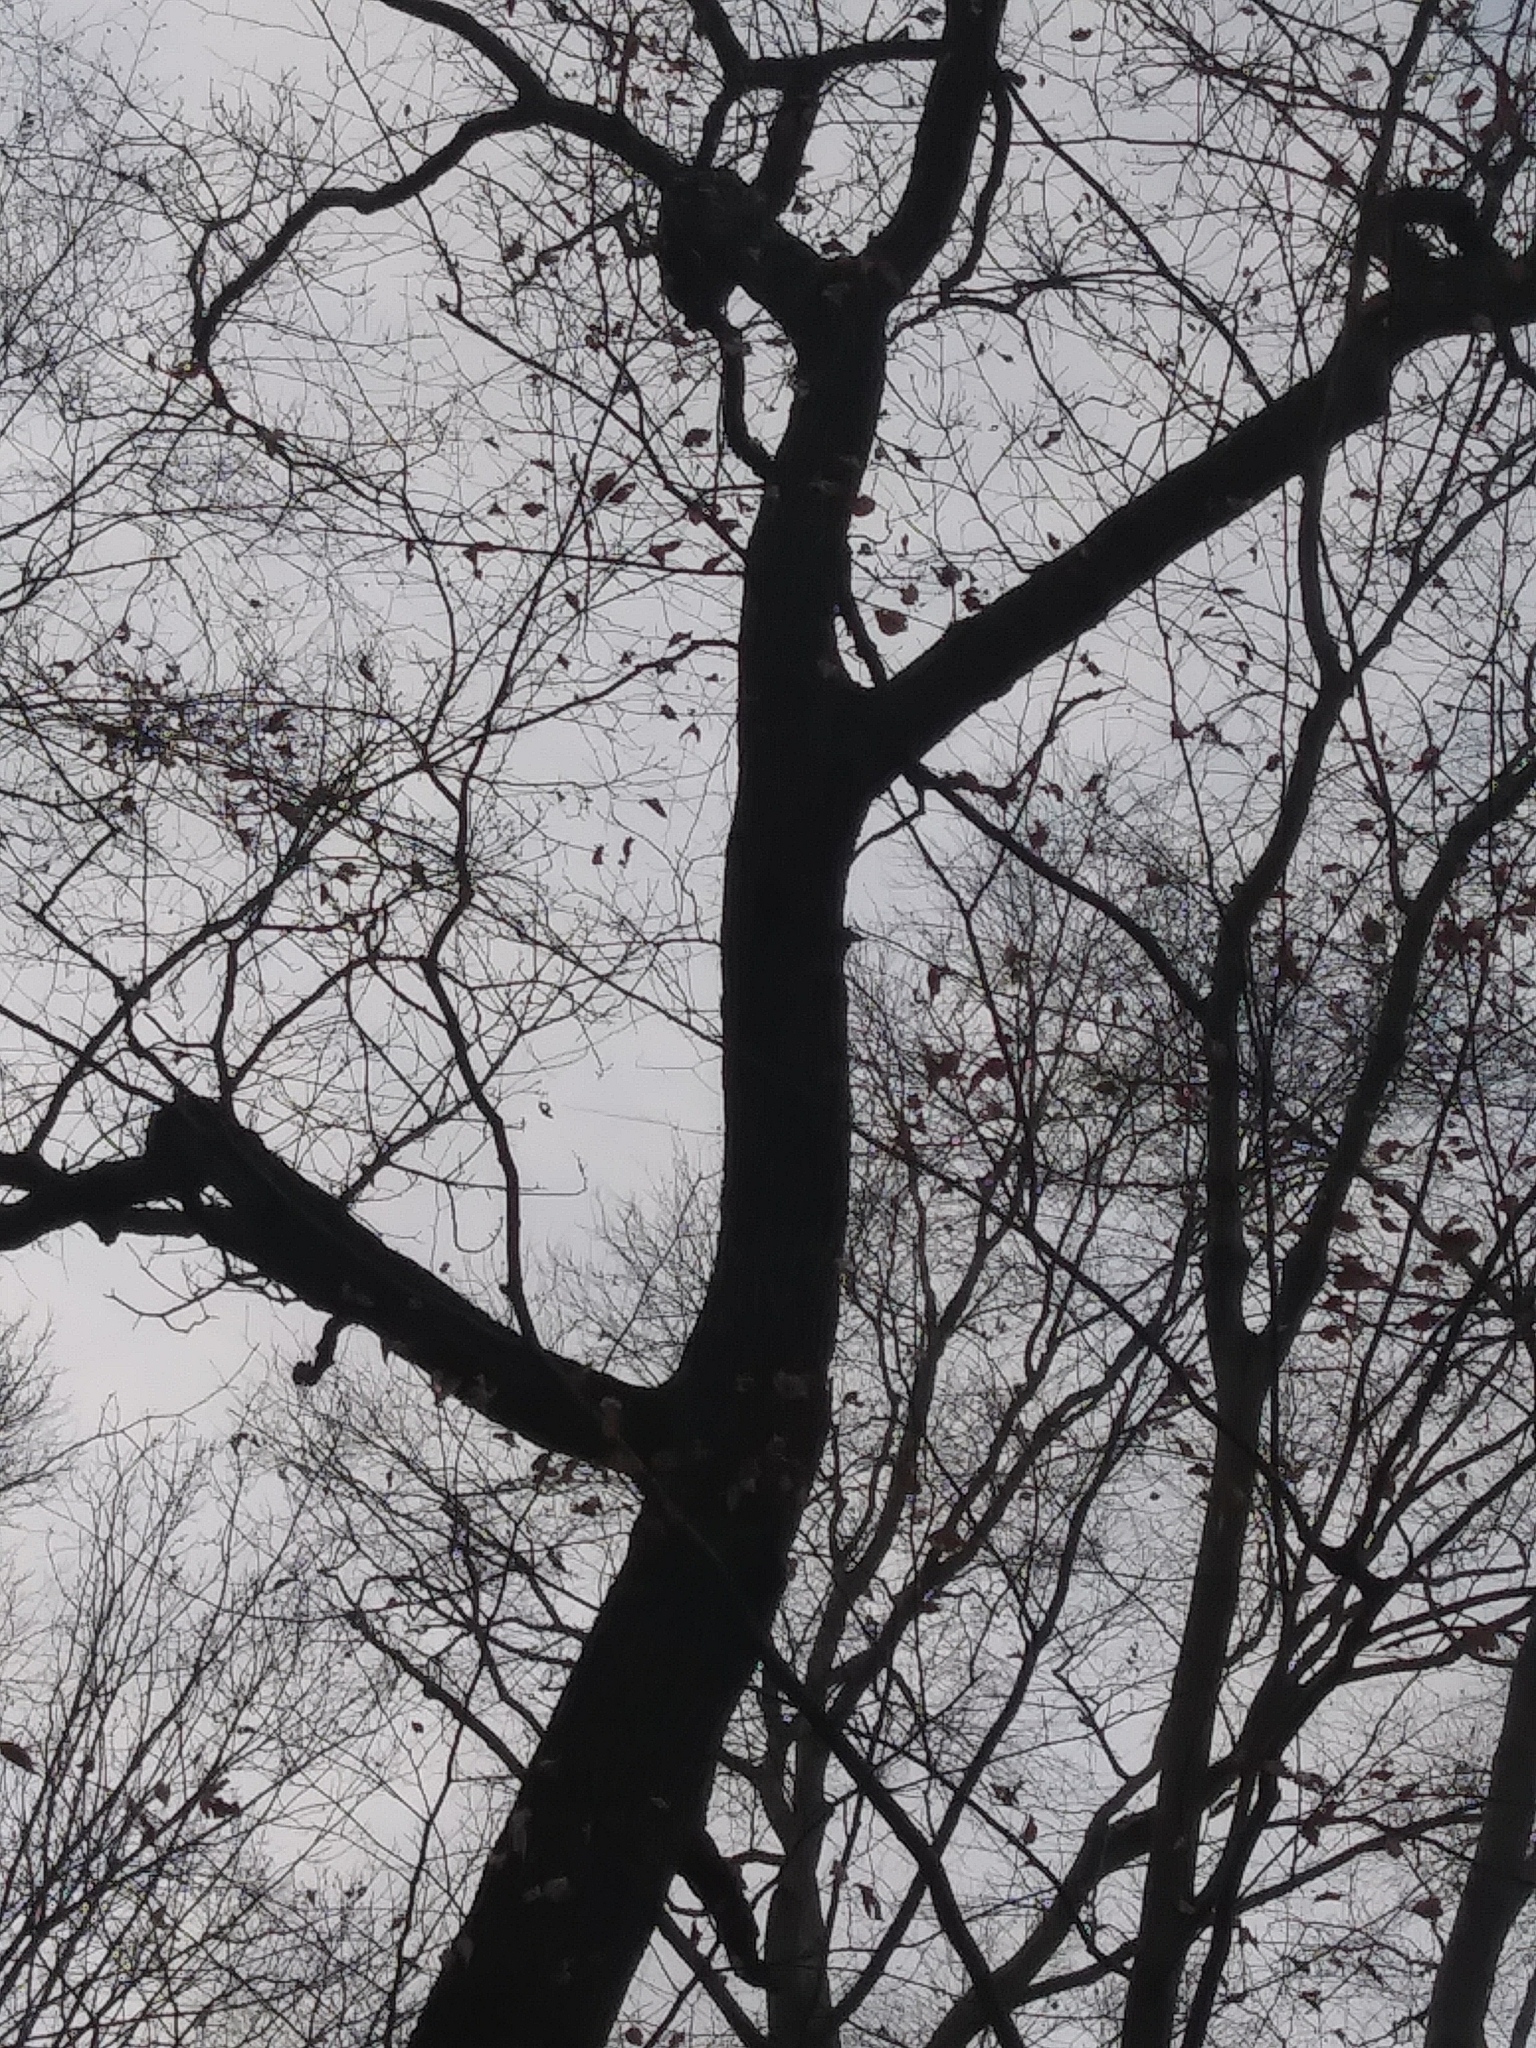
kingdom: Animalia
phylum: Chordata
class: Aves
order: Piciformes
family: Picidae
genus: Dryocopus
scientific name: Dryocopus pileatus
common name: Pileated woodpecker
